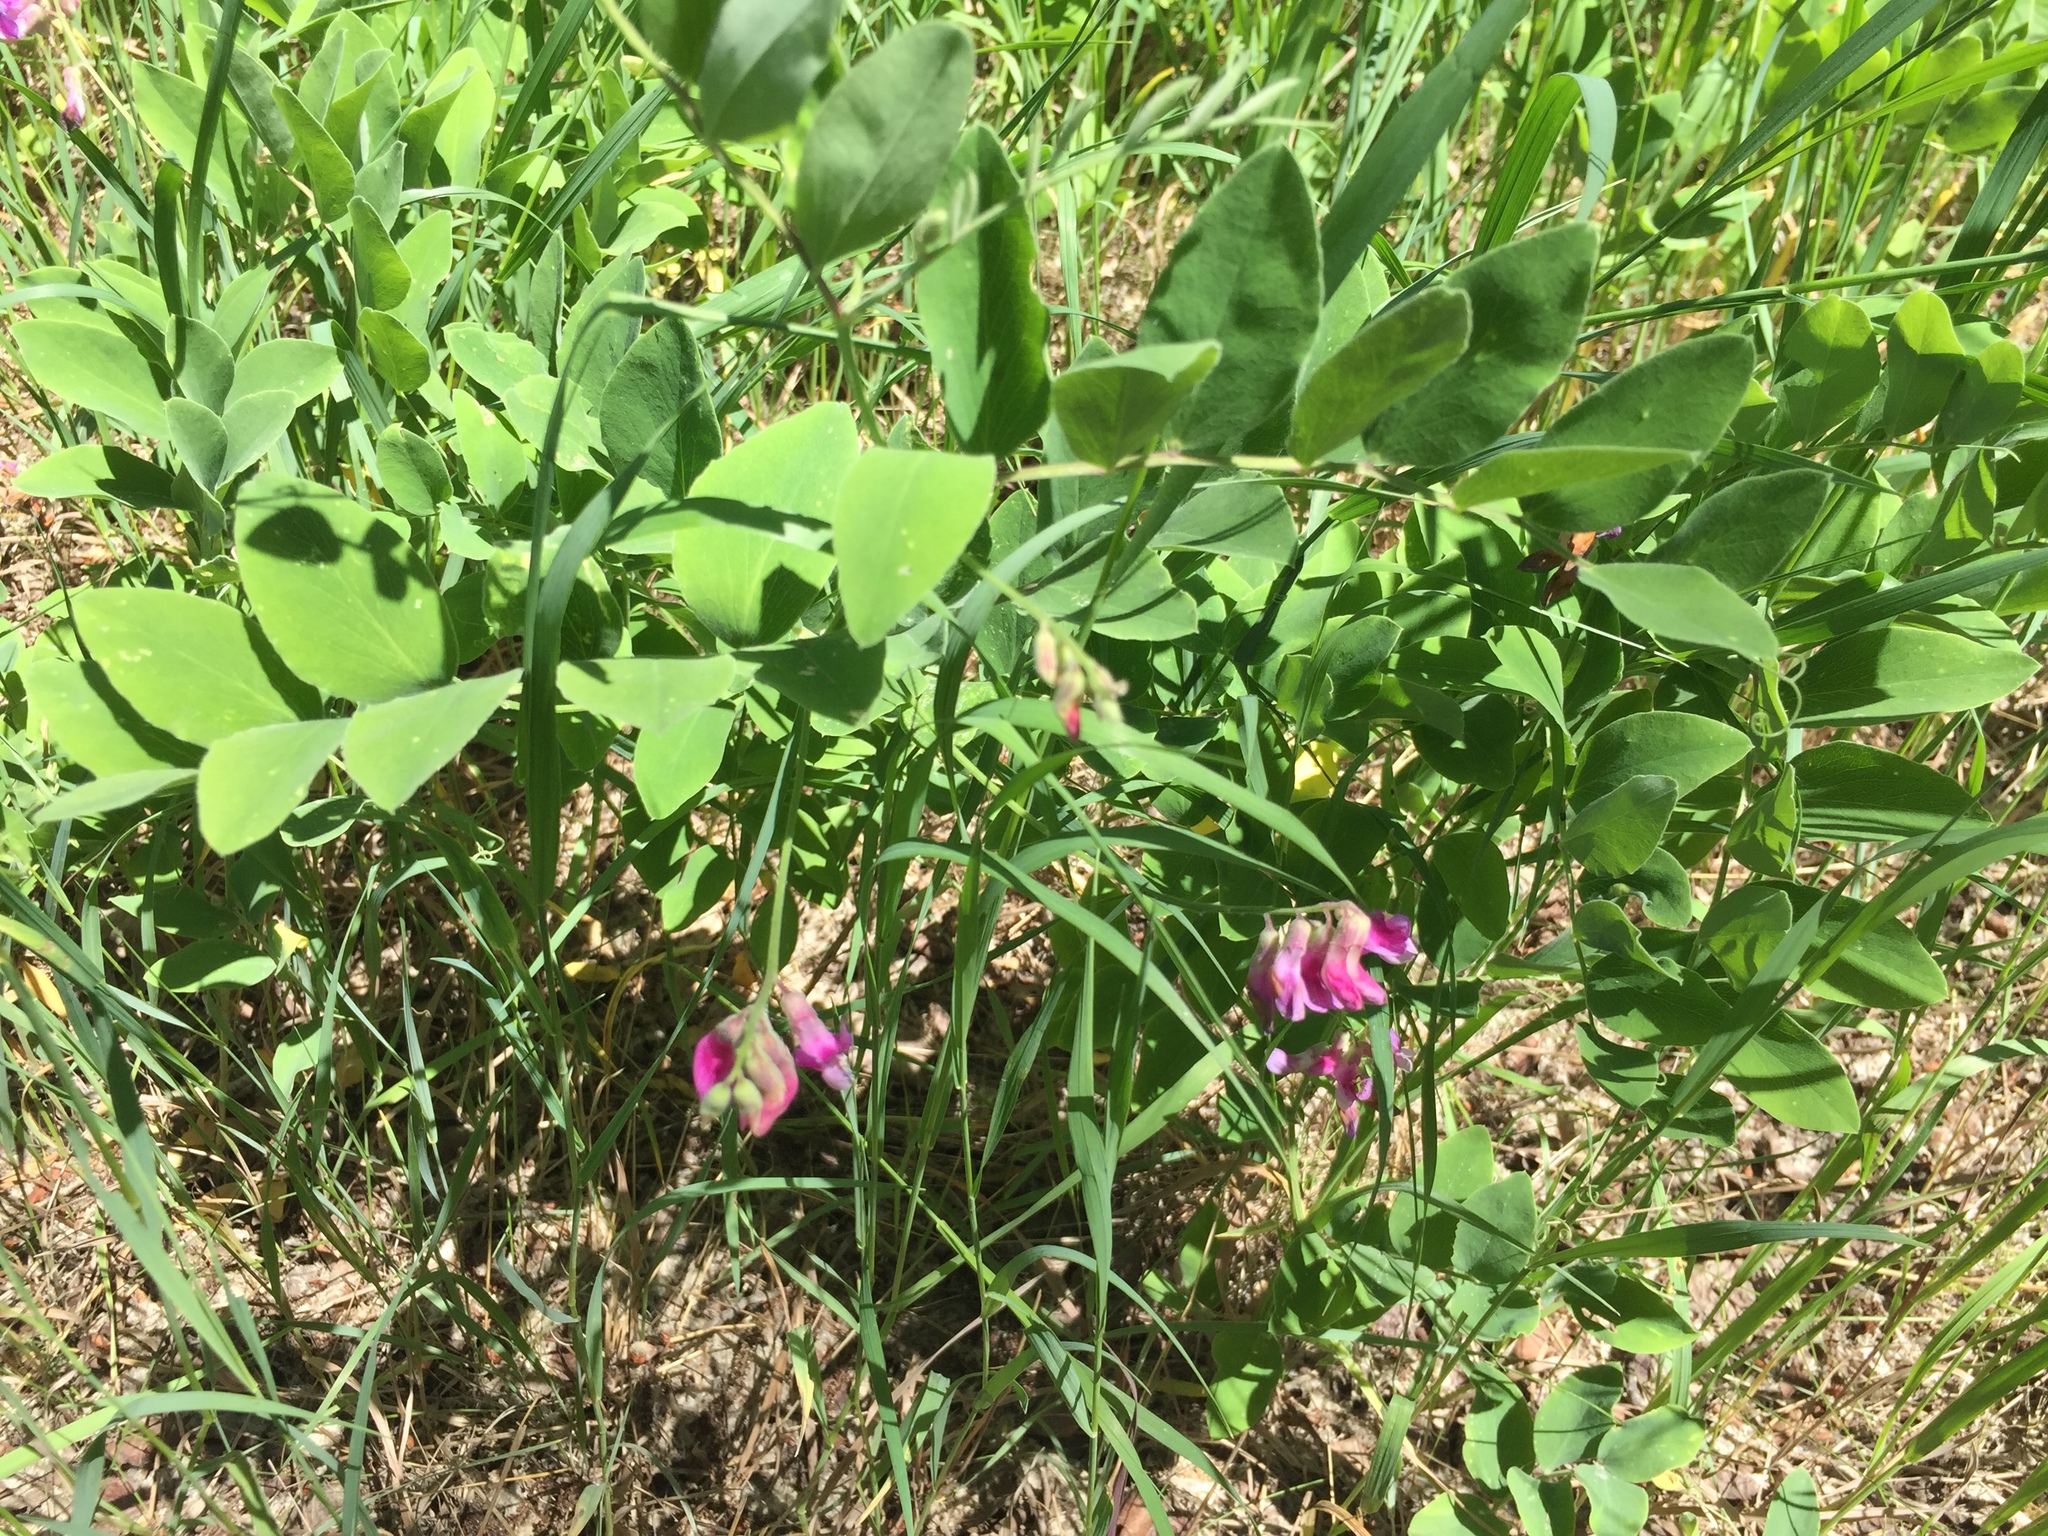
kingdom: Plantae
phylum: Tracheophyta
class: Magnoliopsida
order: Fabales
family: Fabaceae
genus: Lathyrus
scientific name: Lathyrus venosus
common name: Forest-pea
